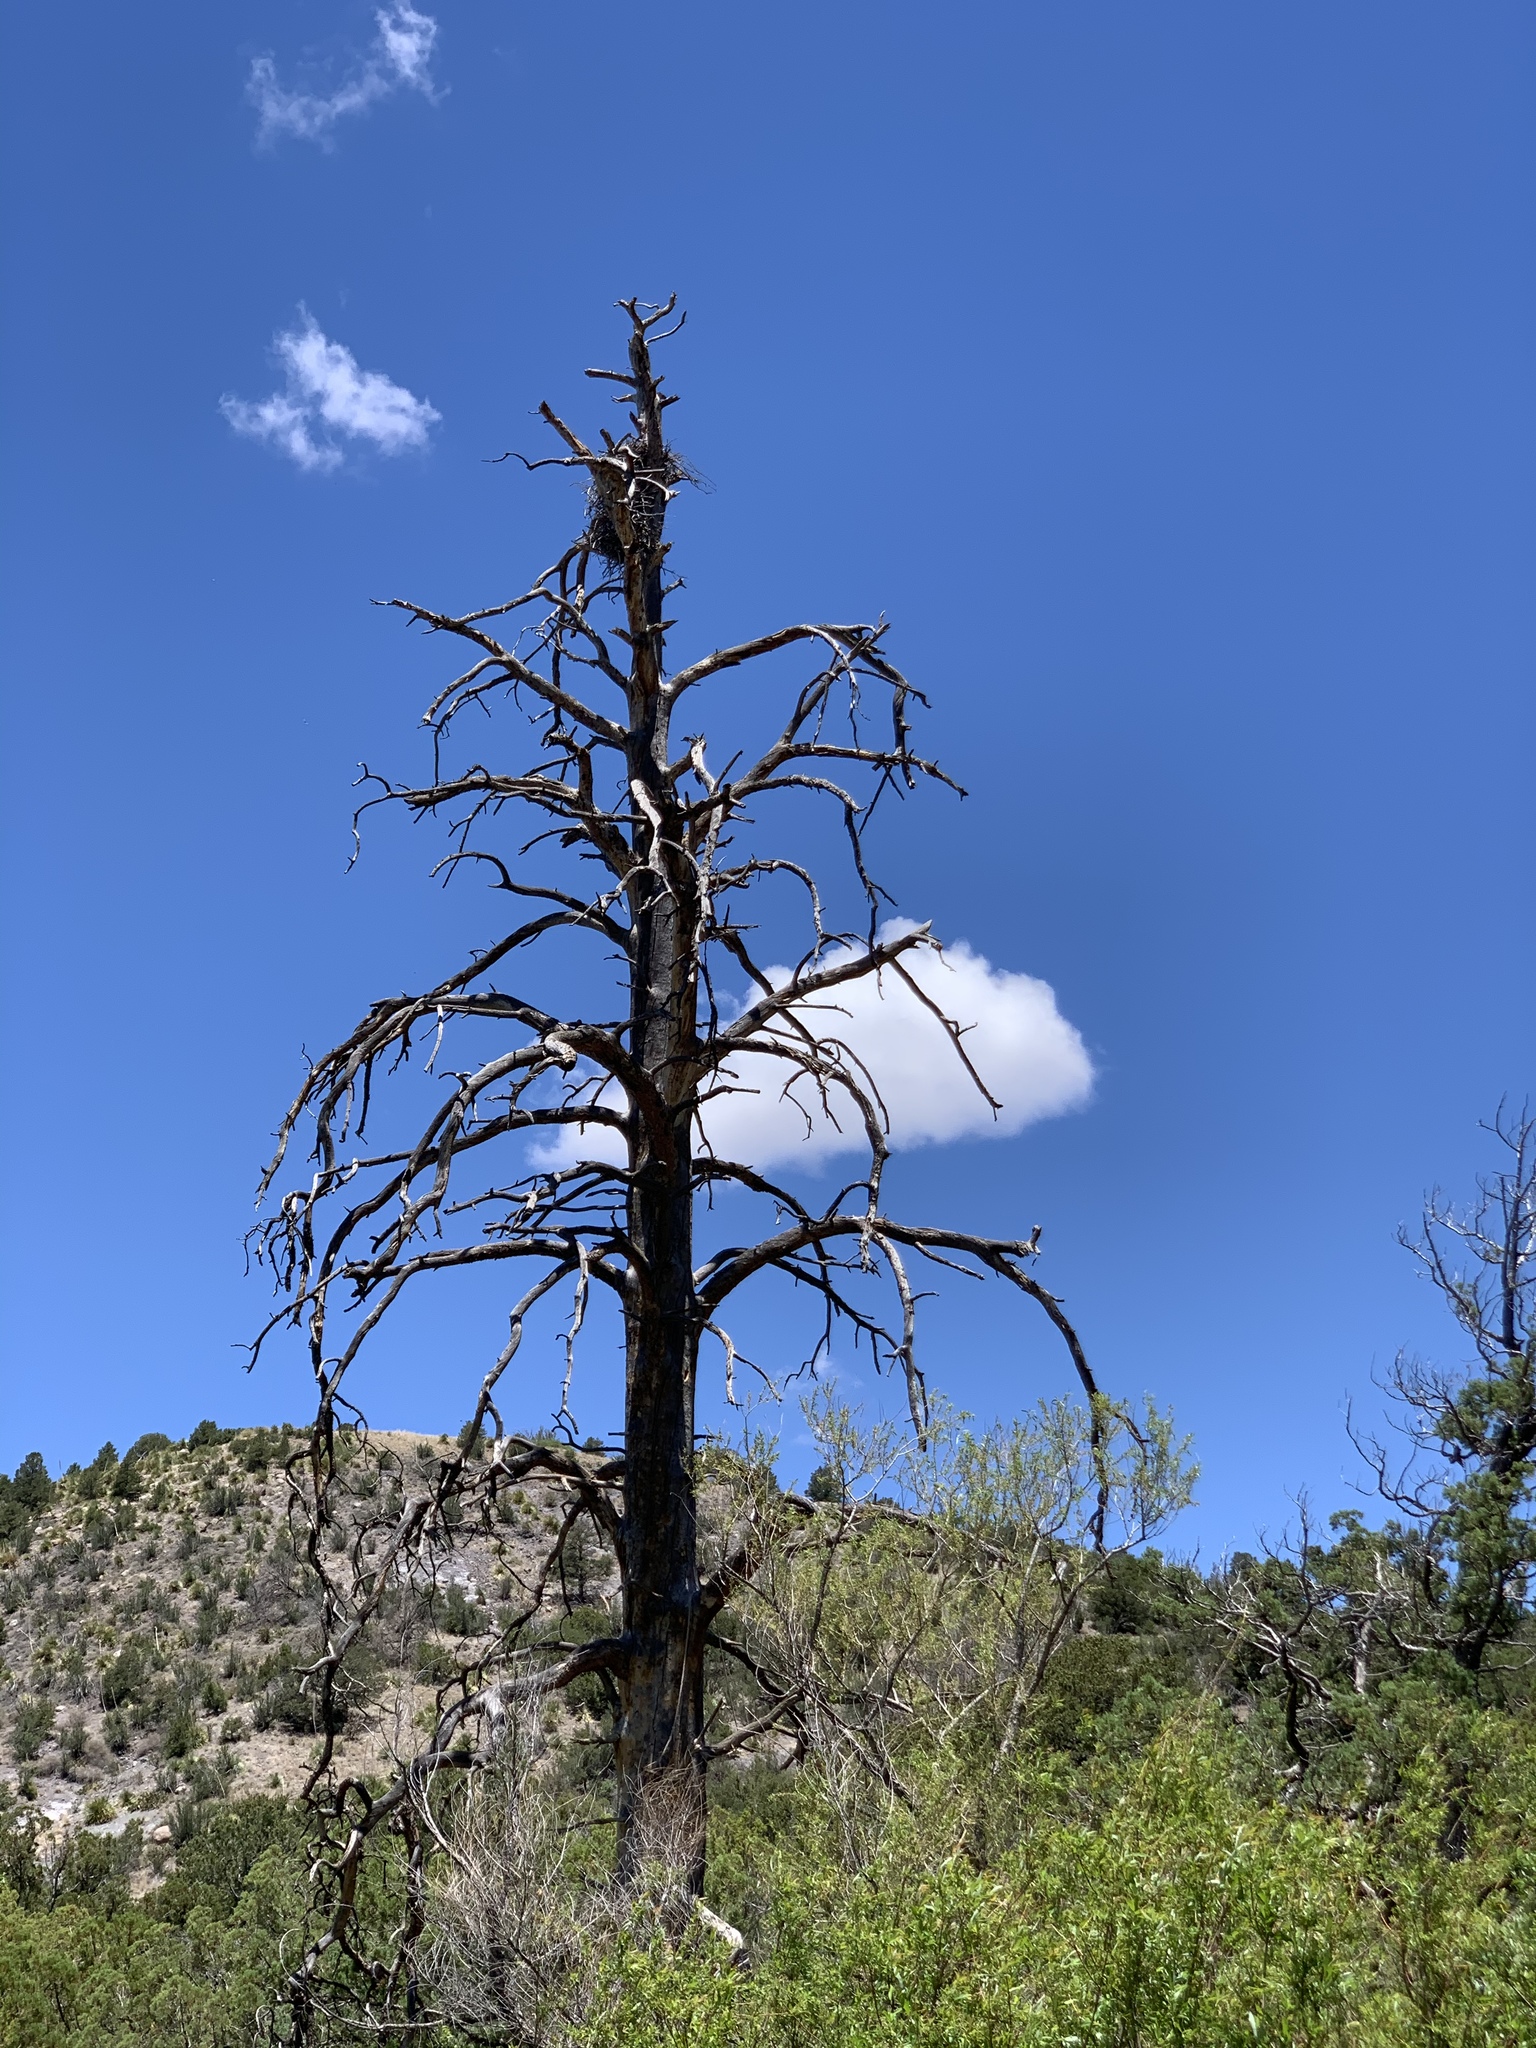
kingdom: Plantae
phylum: Tracheophyta
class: Pinopsida
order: Pinales
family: Pinaceae
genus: Pinus
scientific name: Pinus ponderosa
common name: Western yellow-pine
